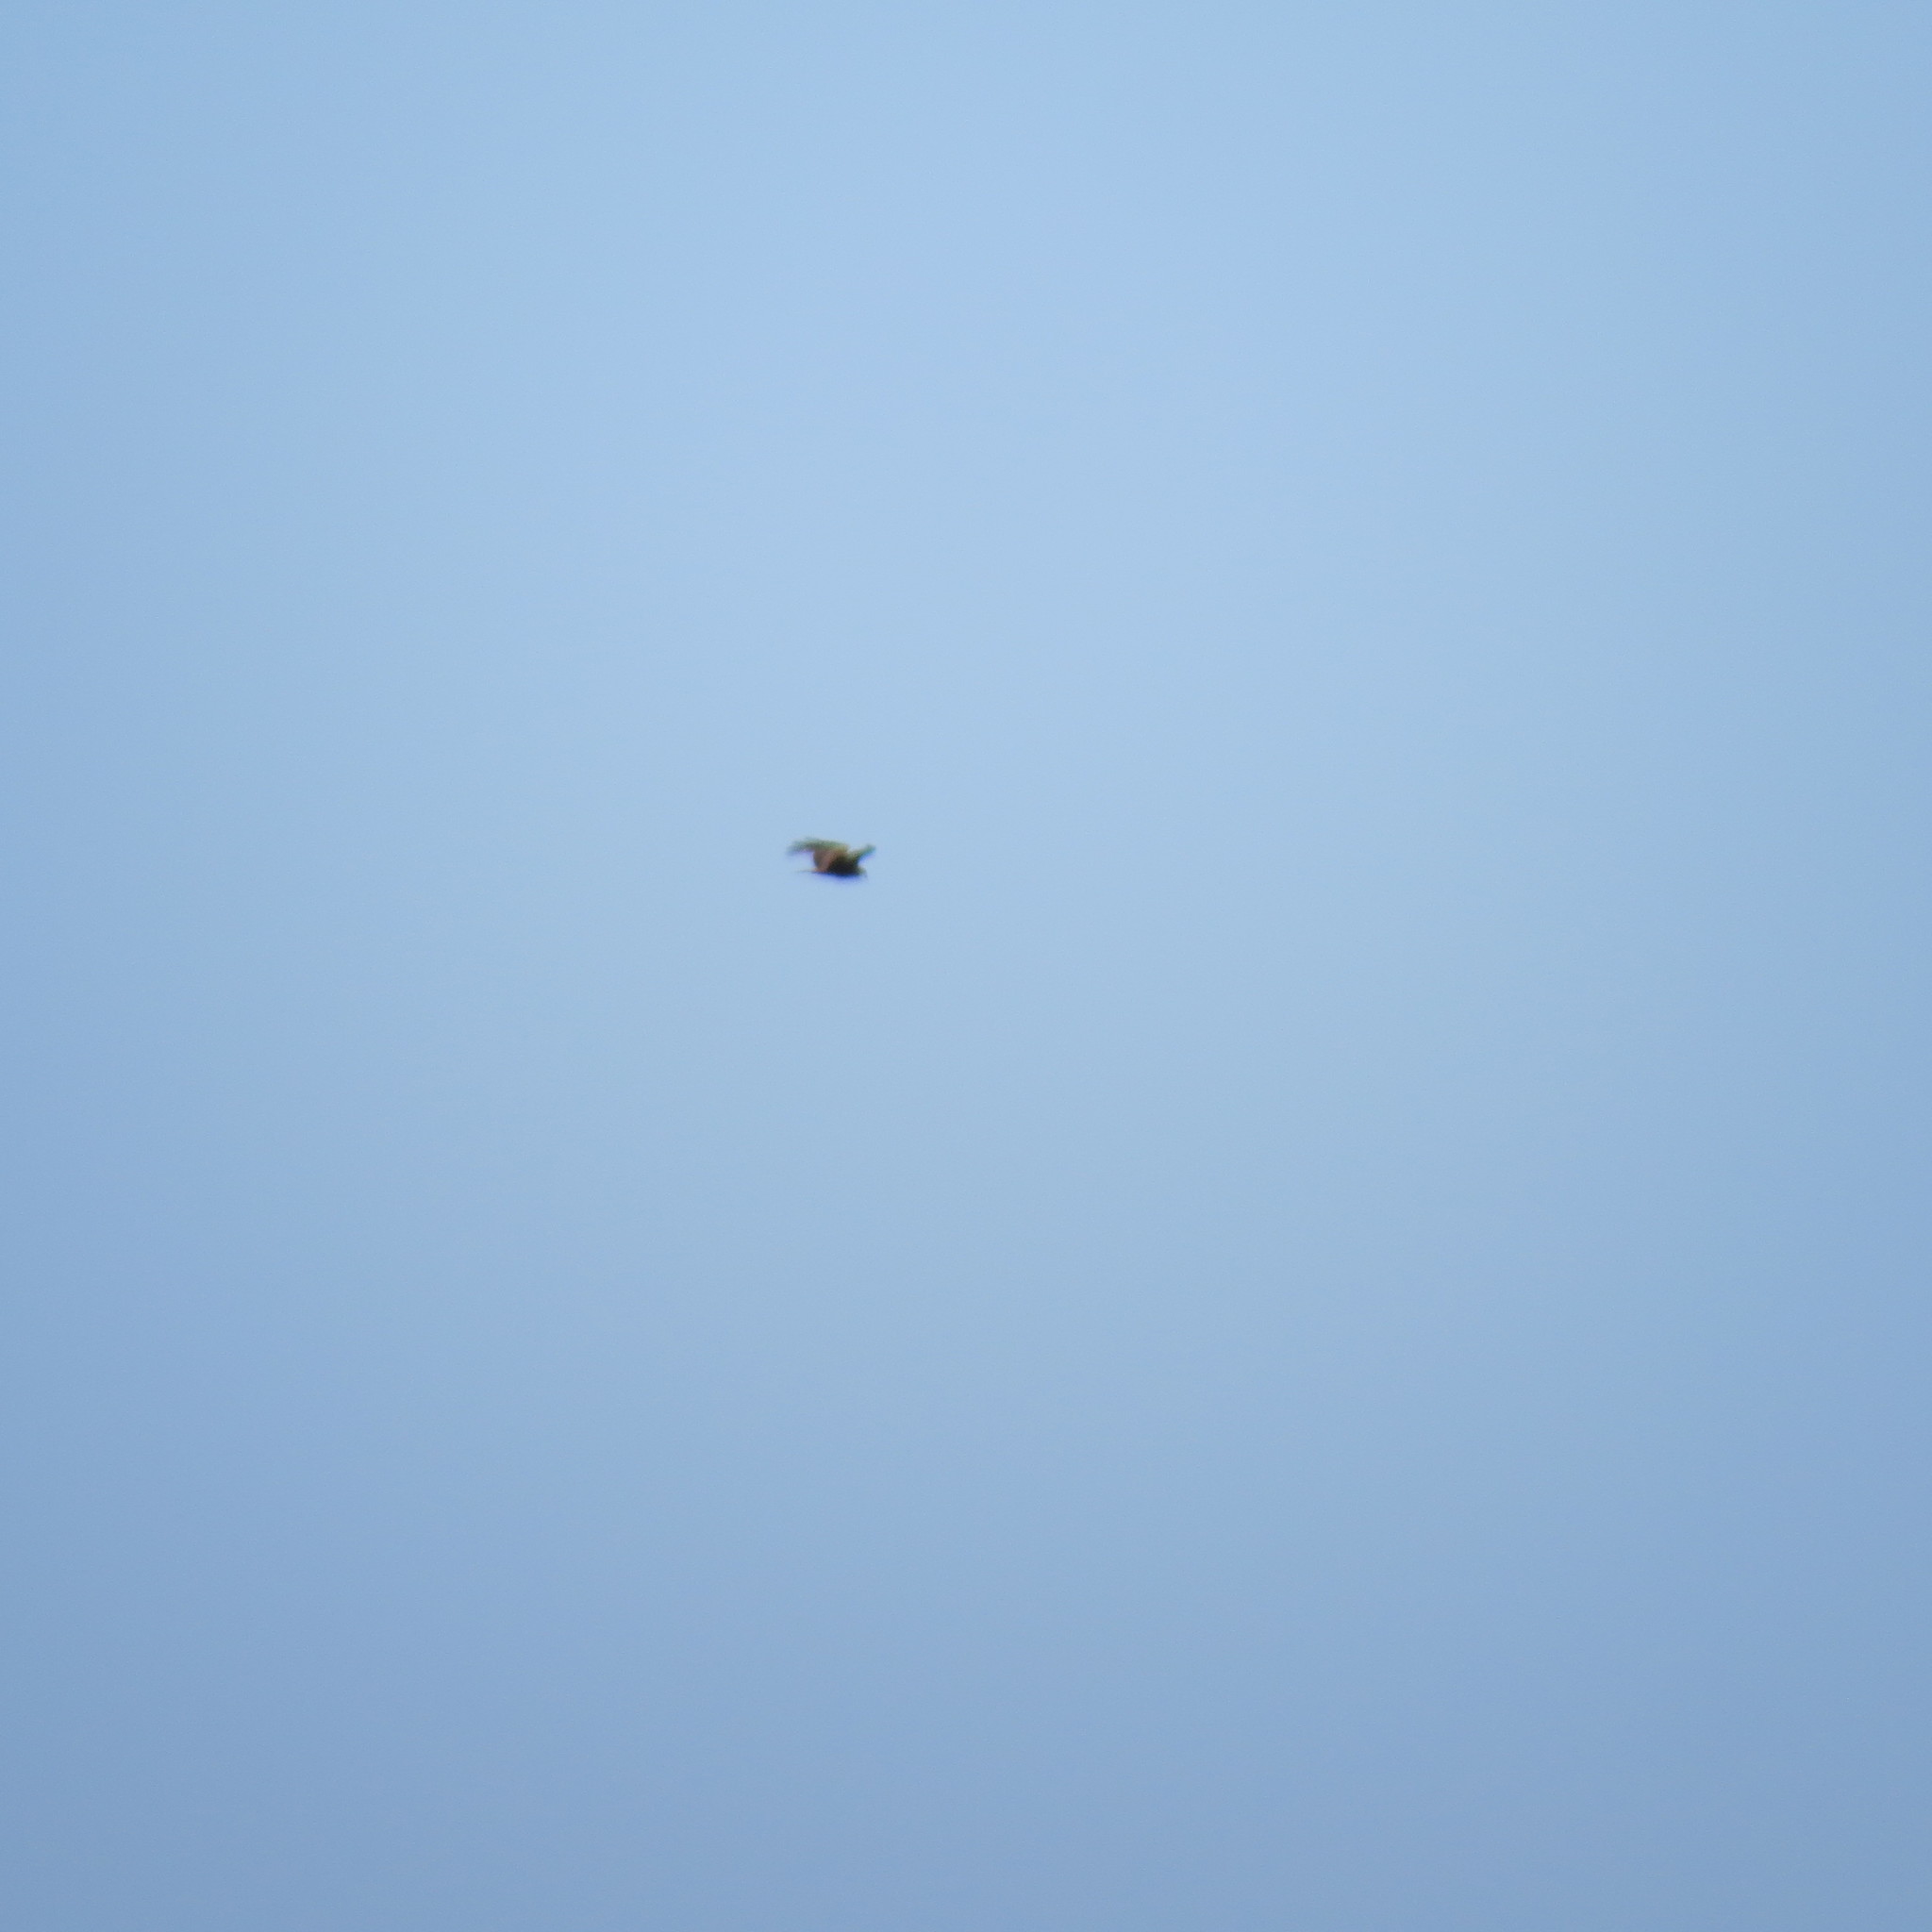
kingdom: Animalia
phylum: Chordata
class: Aves
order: Accipitriformes
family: Accipitridae
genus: Milvus
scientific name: Milvus migrans
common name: Black kite
